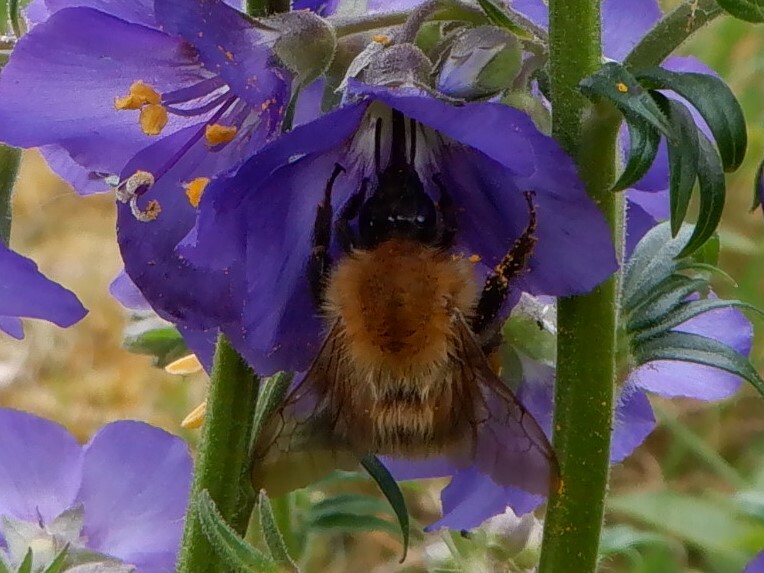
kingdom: Animalia
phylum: Arthropoda
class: Insecta
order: Hymenoptera
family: Apidae
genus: Bombus
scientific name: Bombus pascuorum
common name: Common carder bee
